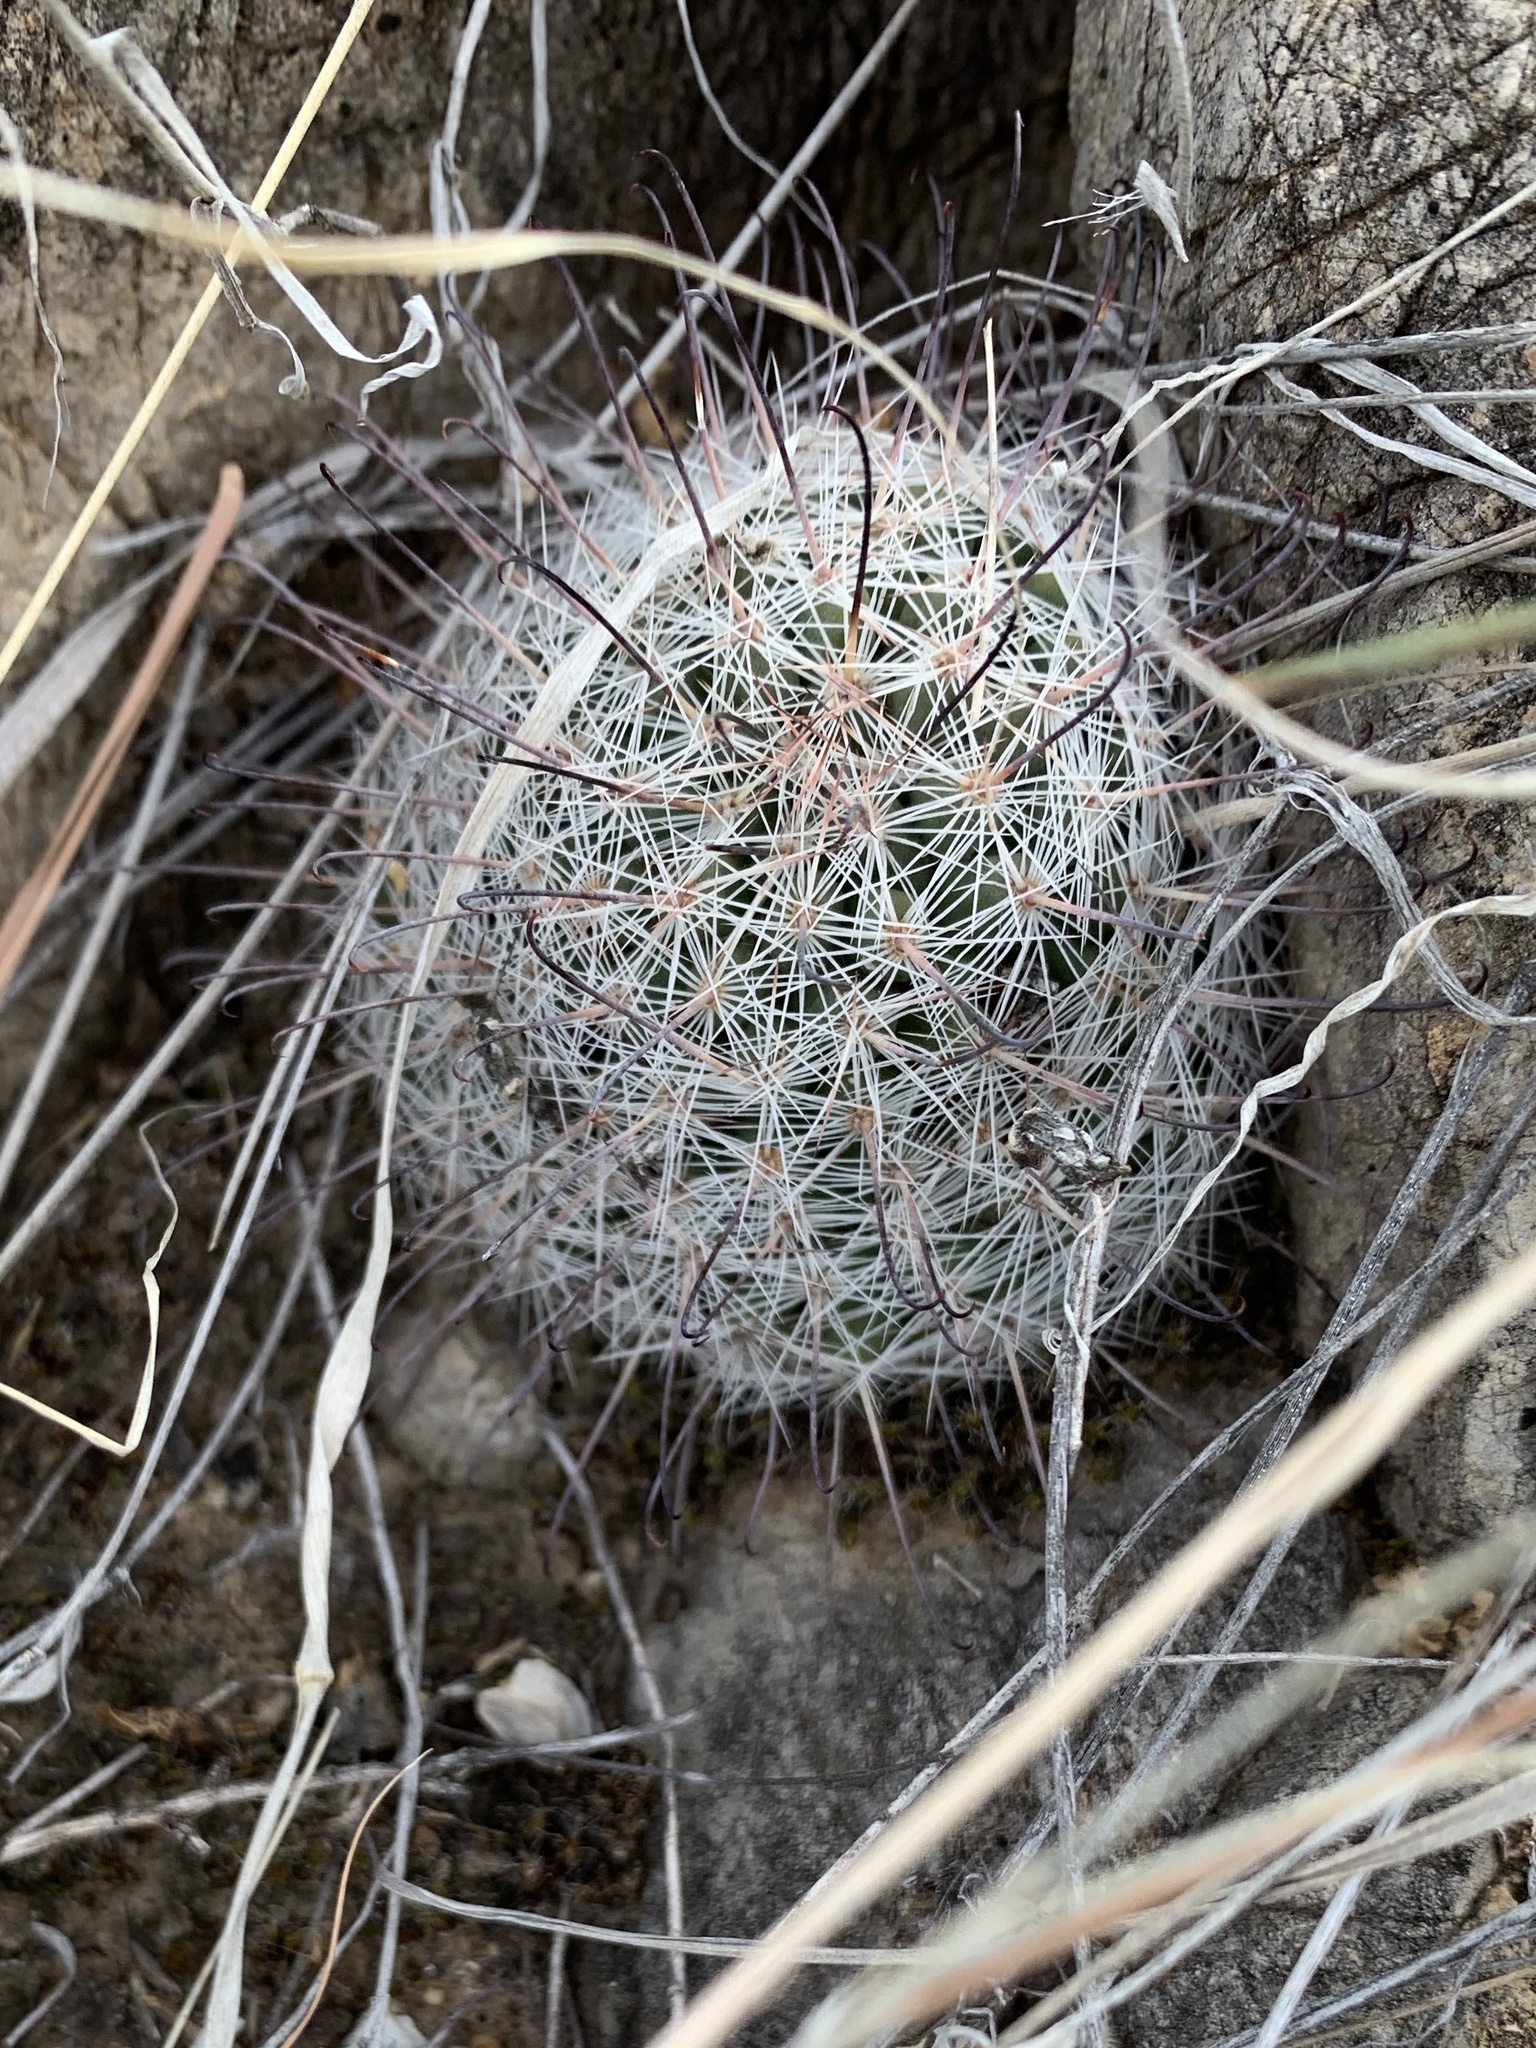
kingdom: Plantae
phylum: Tracheophyta
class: Magnoliopsida
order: Caryophyllales
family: Cactaceae
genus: Cochemiea
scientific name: Cochemiea grahamii
